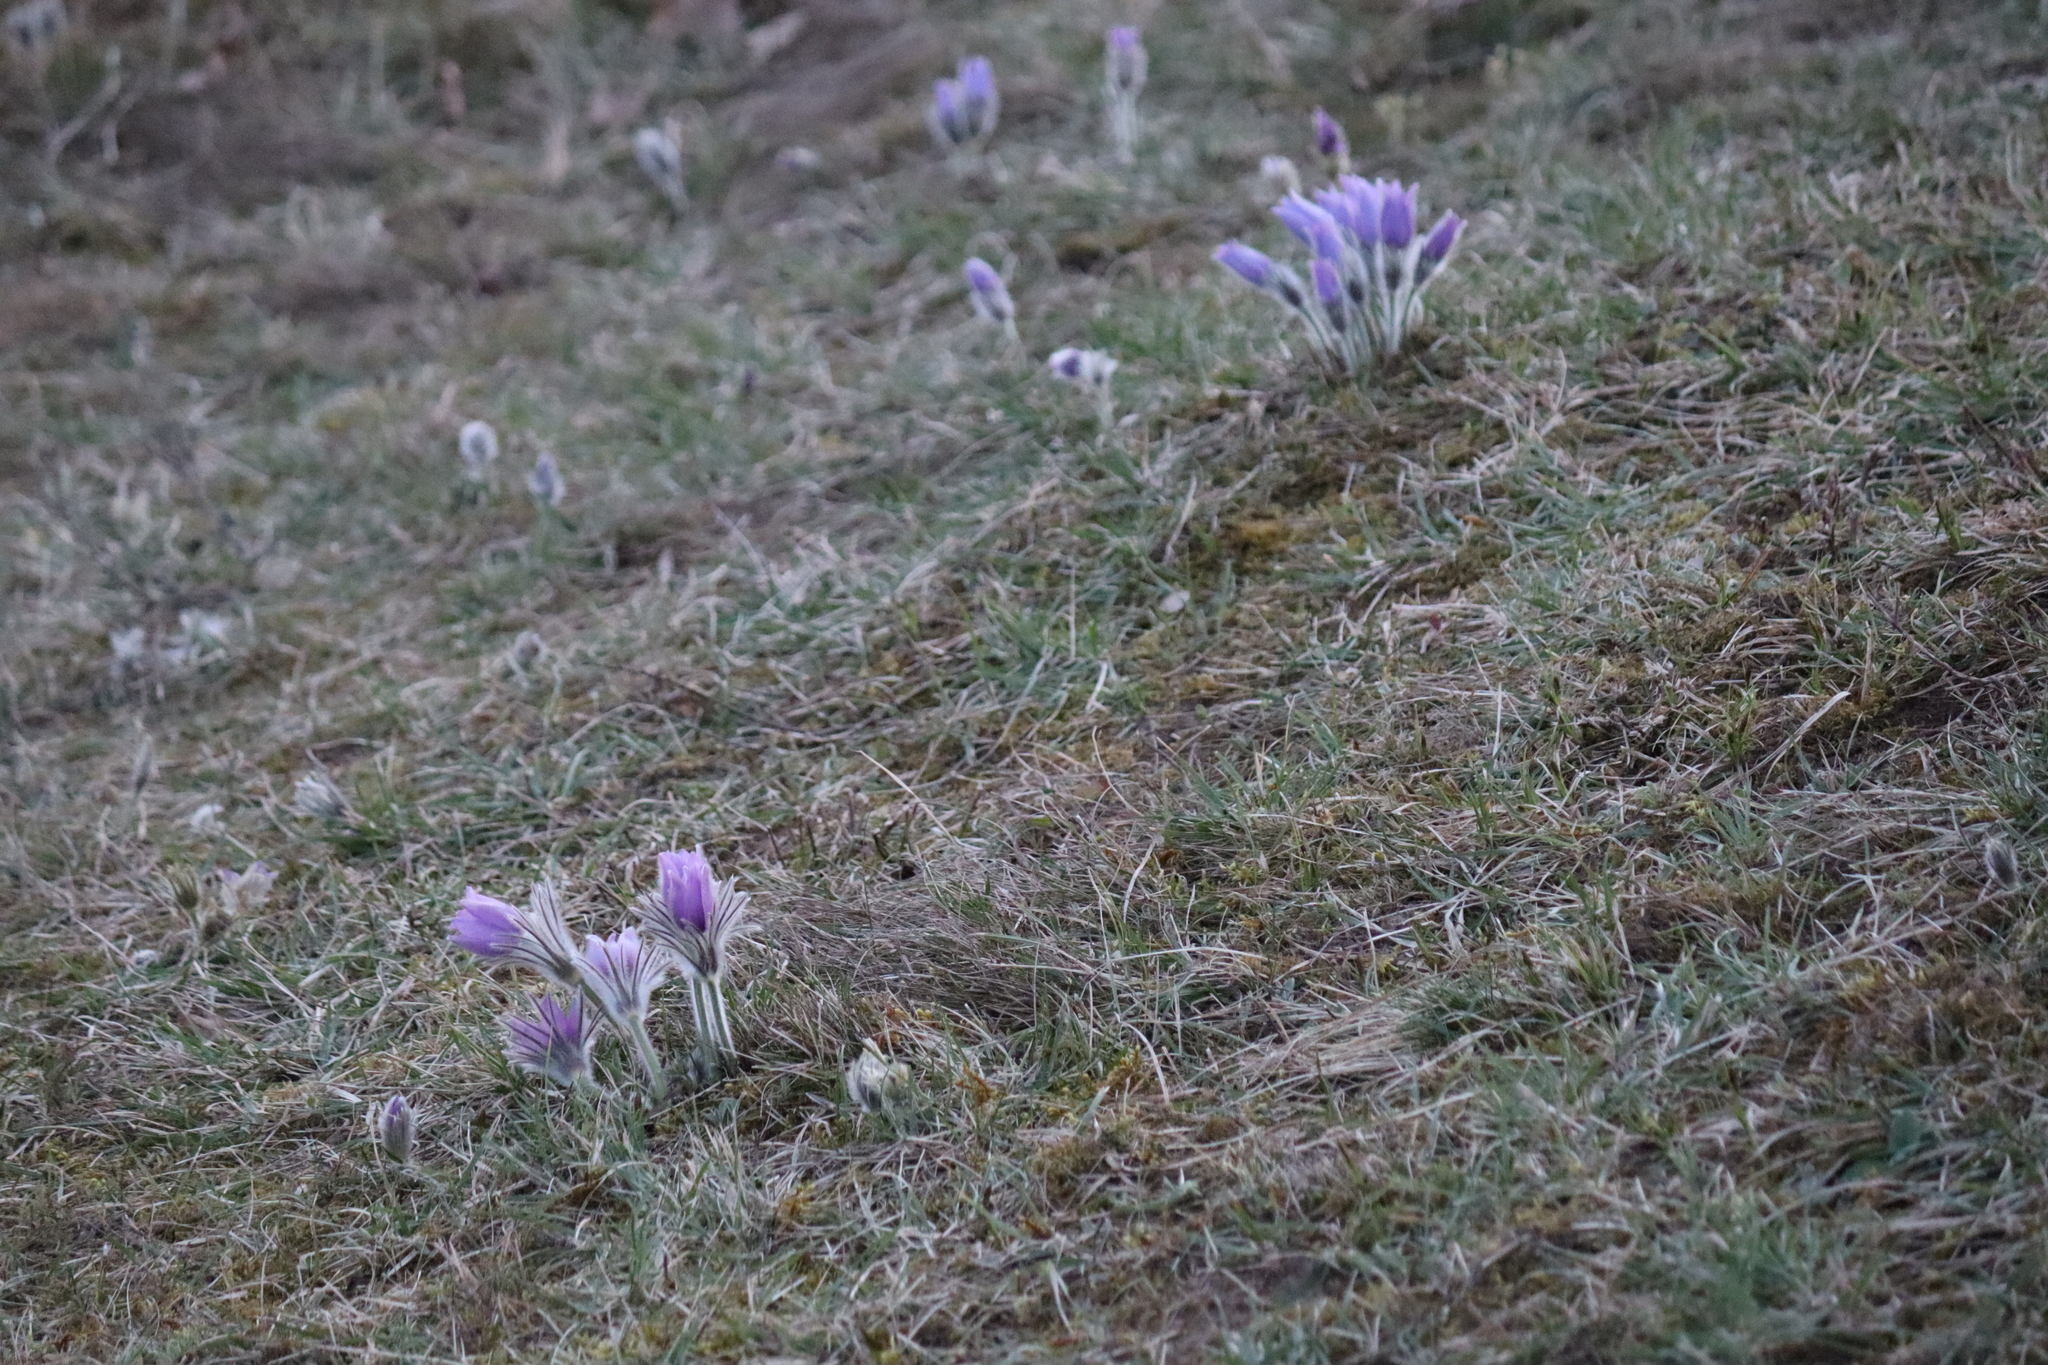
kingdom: Plantae
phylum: Tracheophyta
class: Magnoliopsida
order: Ranunculales
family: Ranunculaceae
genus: Pulsatilla
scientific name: Pulsatilla grandis
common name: Greater pasque flower
